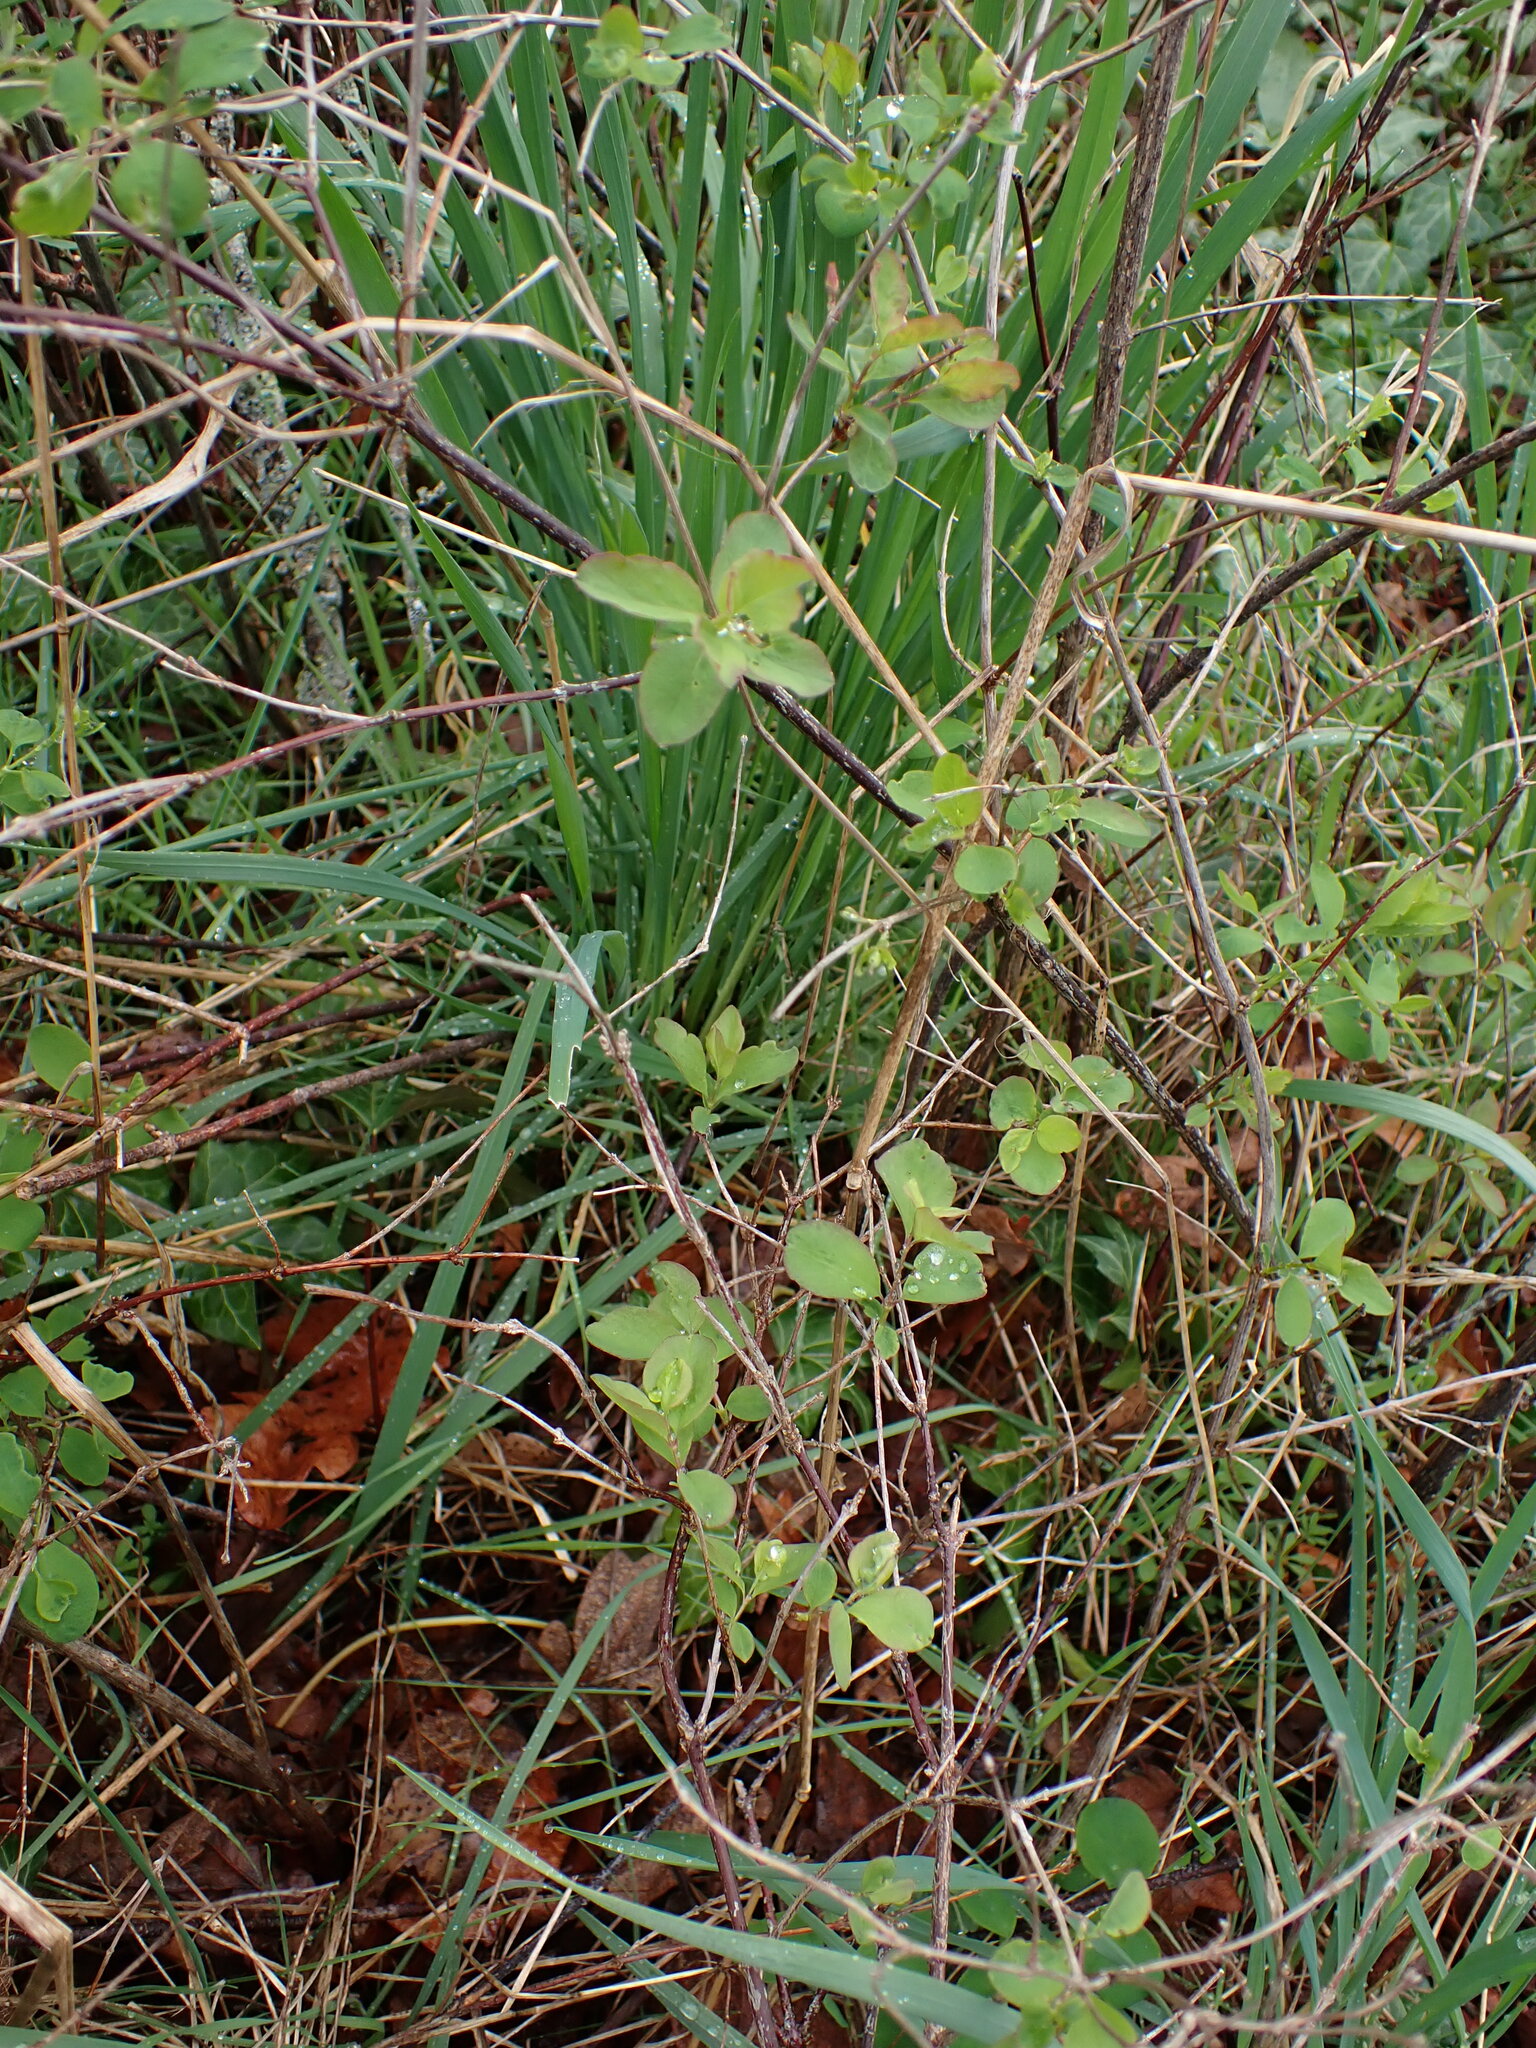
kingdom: Plantae
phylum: Tracheophyta
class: Magnoliopsida
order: Dipsacales
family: Caprifoliaceae
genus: Symphoricarpos
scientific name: Symphoricarpos albus
